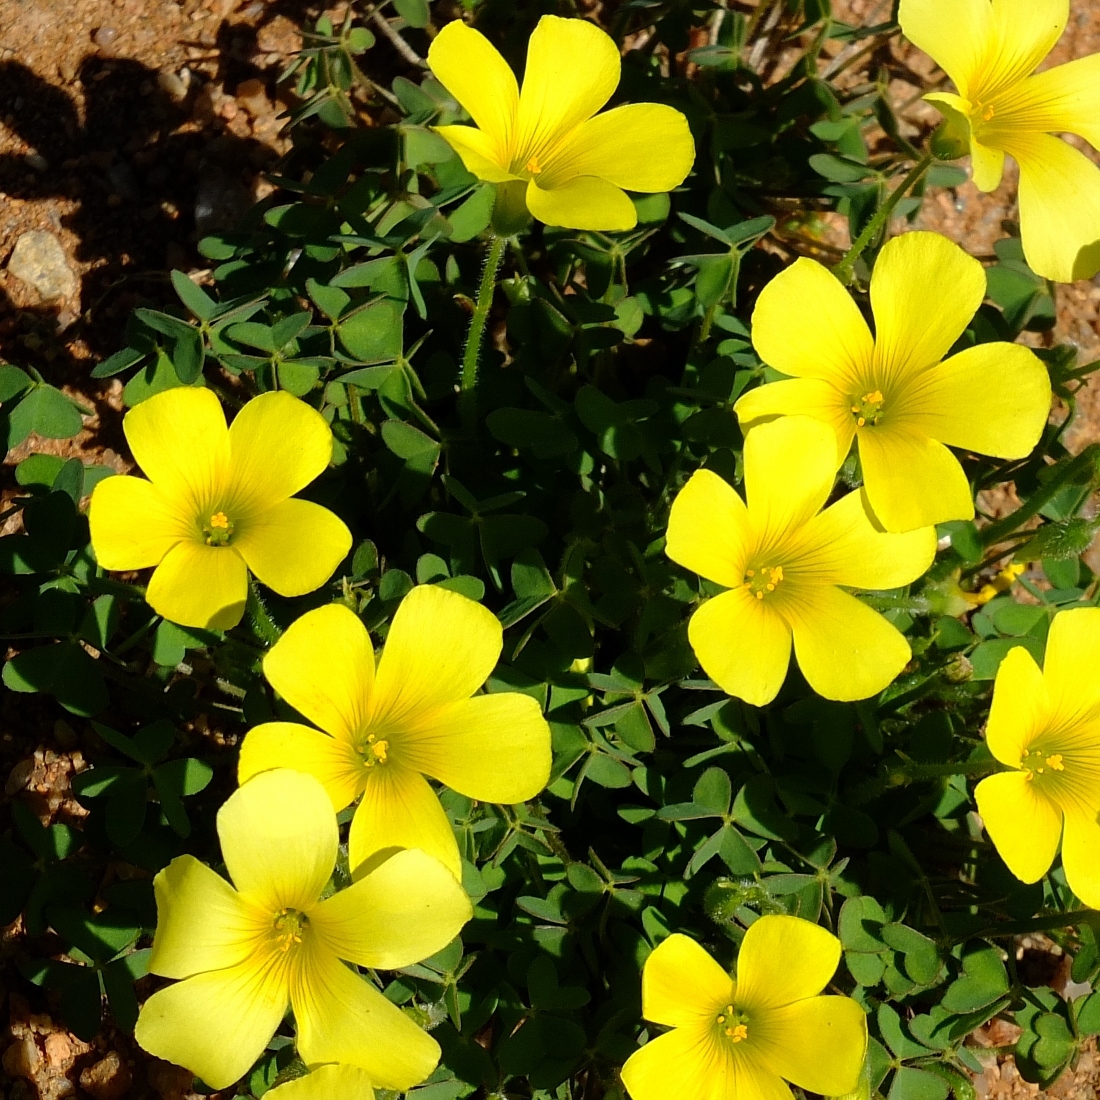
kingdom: Plantae
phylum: Tracheophyta
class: Magnoliopsida
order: Oxalidales
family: Oxalidaceae
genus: Oxalis
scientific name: Oxalis copiosa
